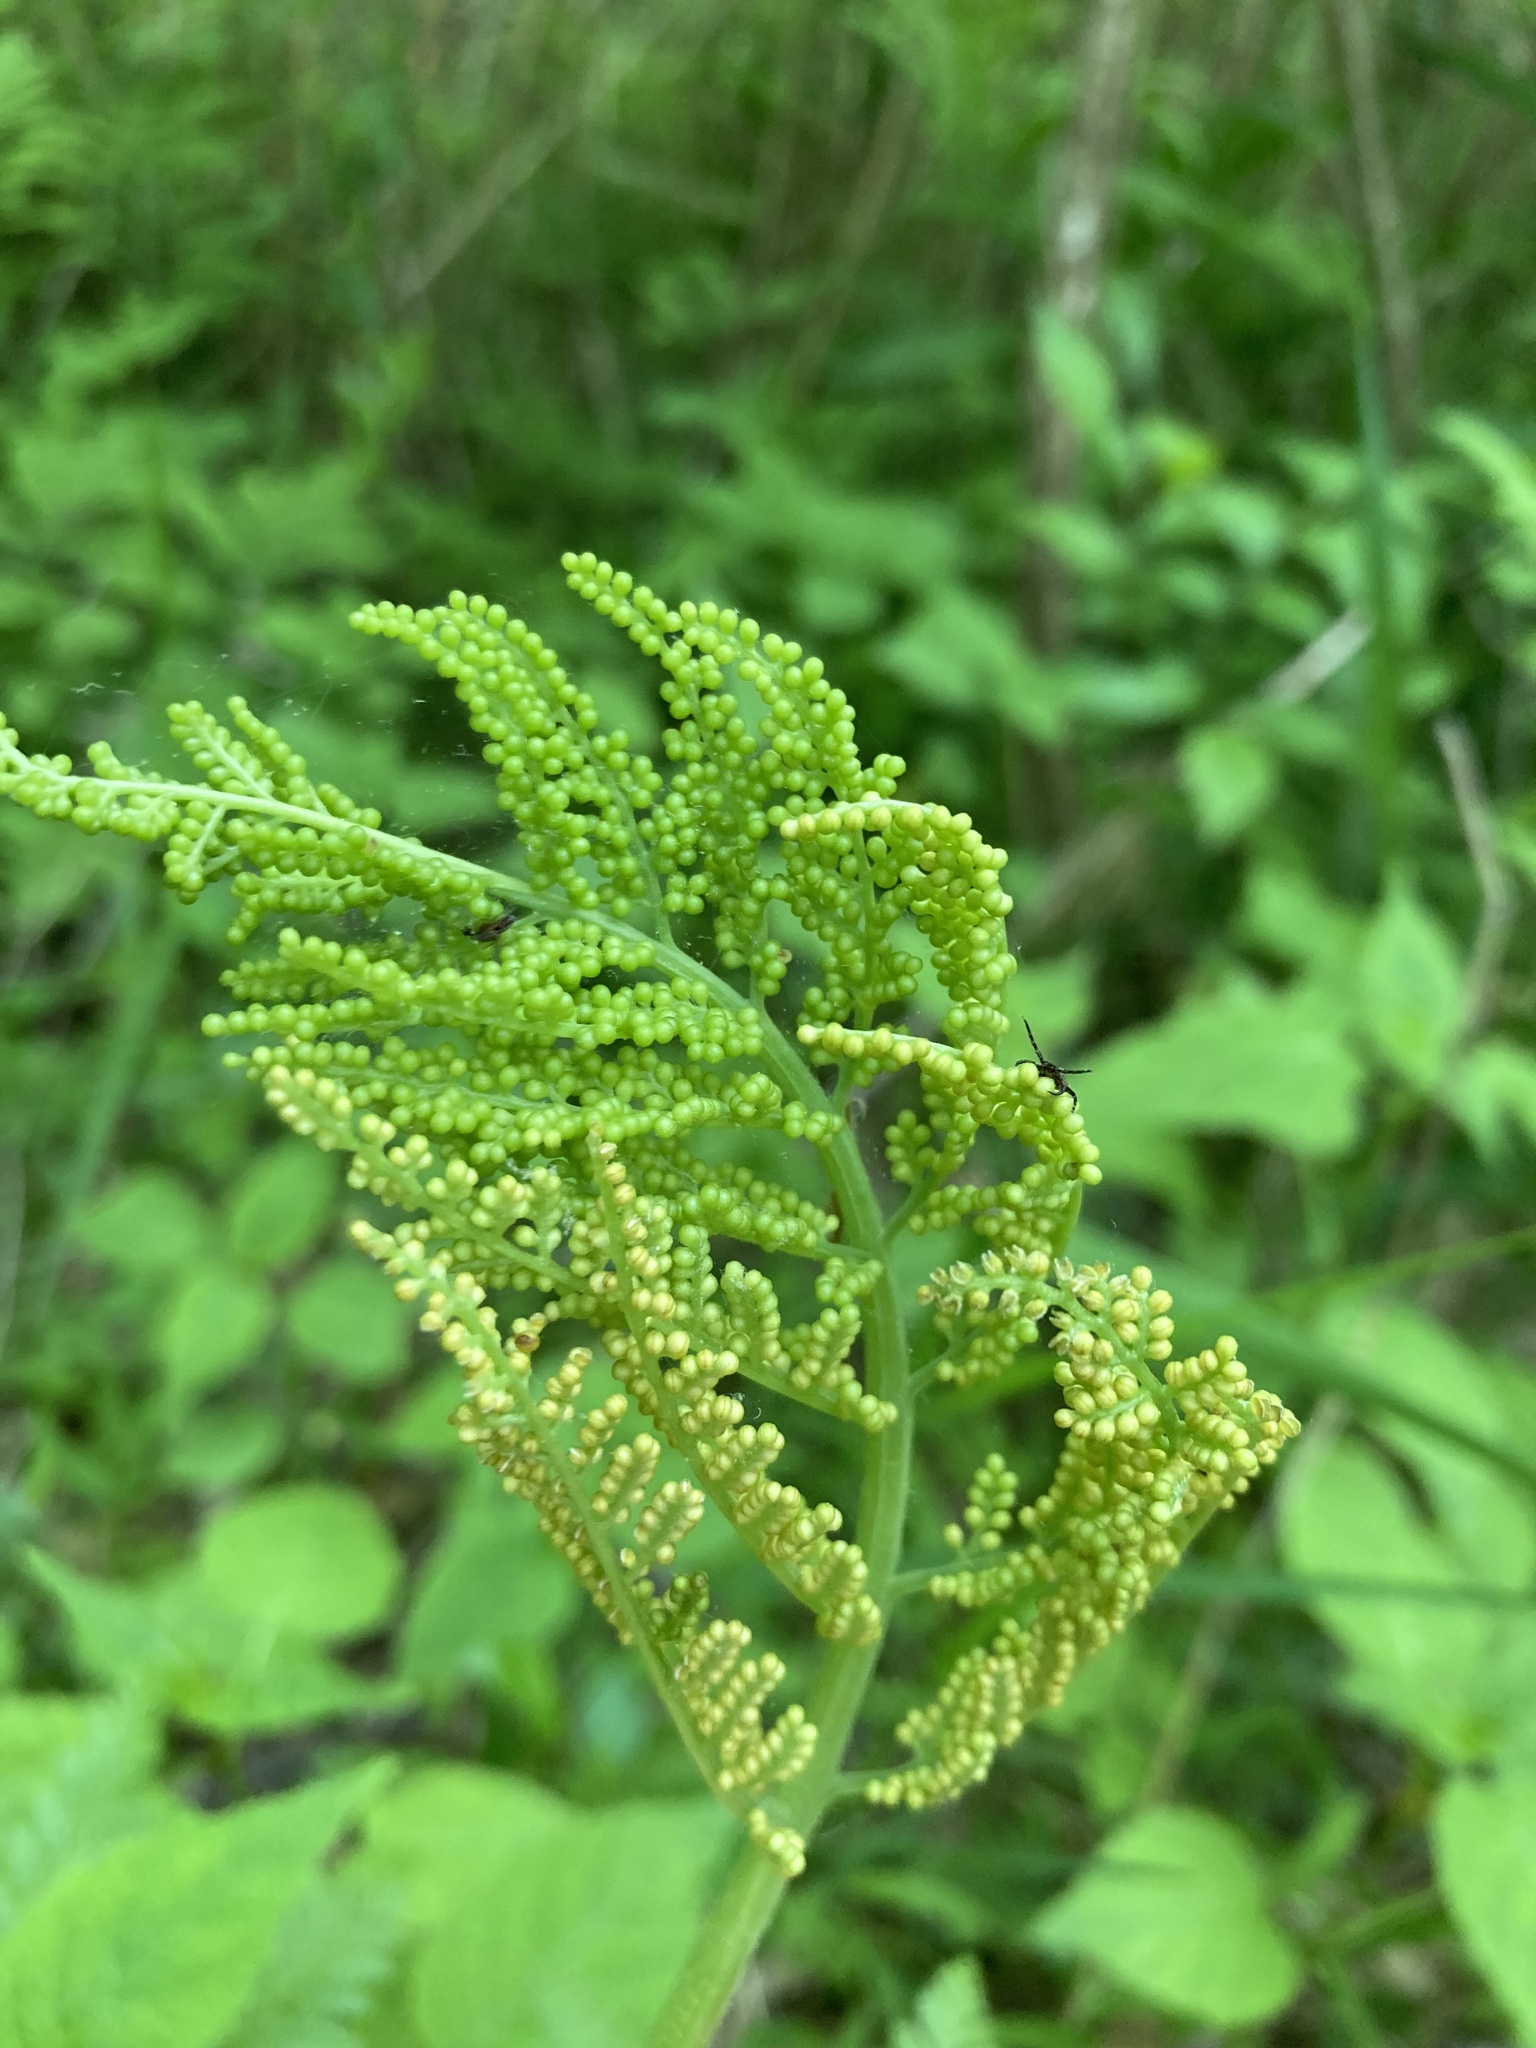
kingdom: Plantae
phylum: Tracheophyta
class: Polypodiopsida
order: Ophioglossales
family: Ophioglossaceae
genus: Botrypus
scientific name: Botrypus virginianus
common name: Common grapefern
